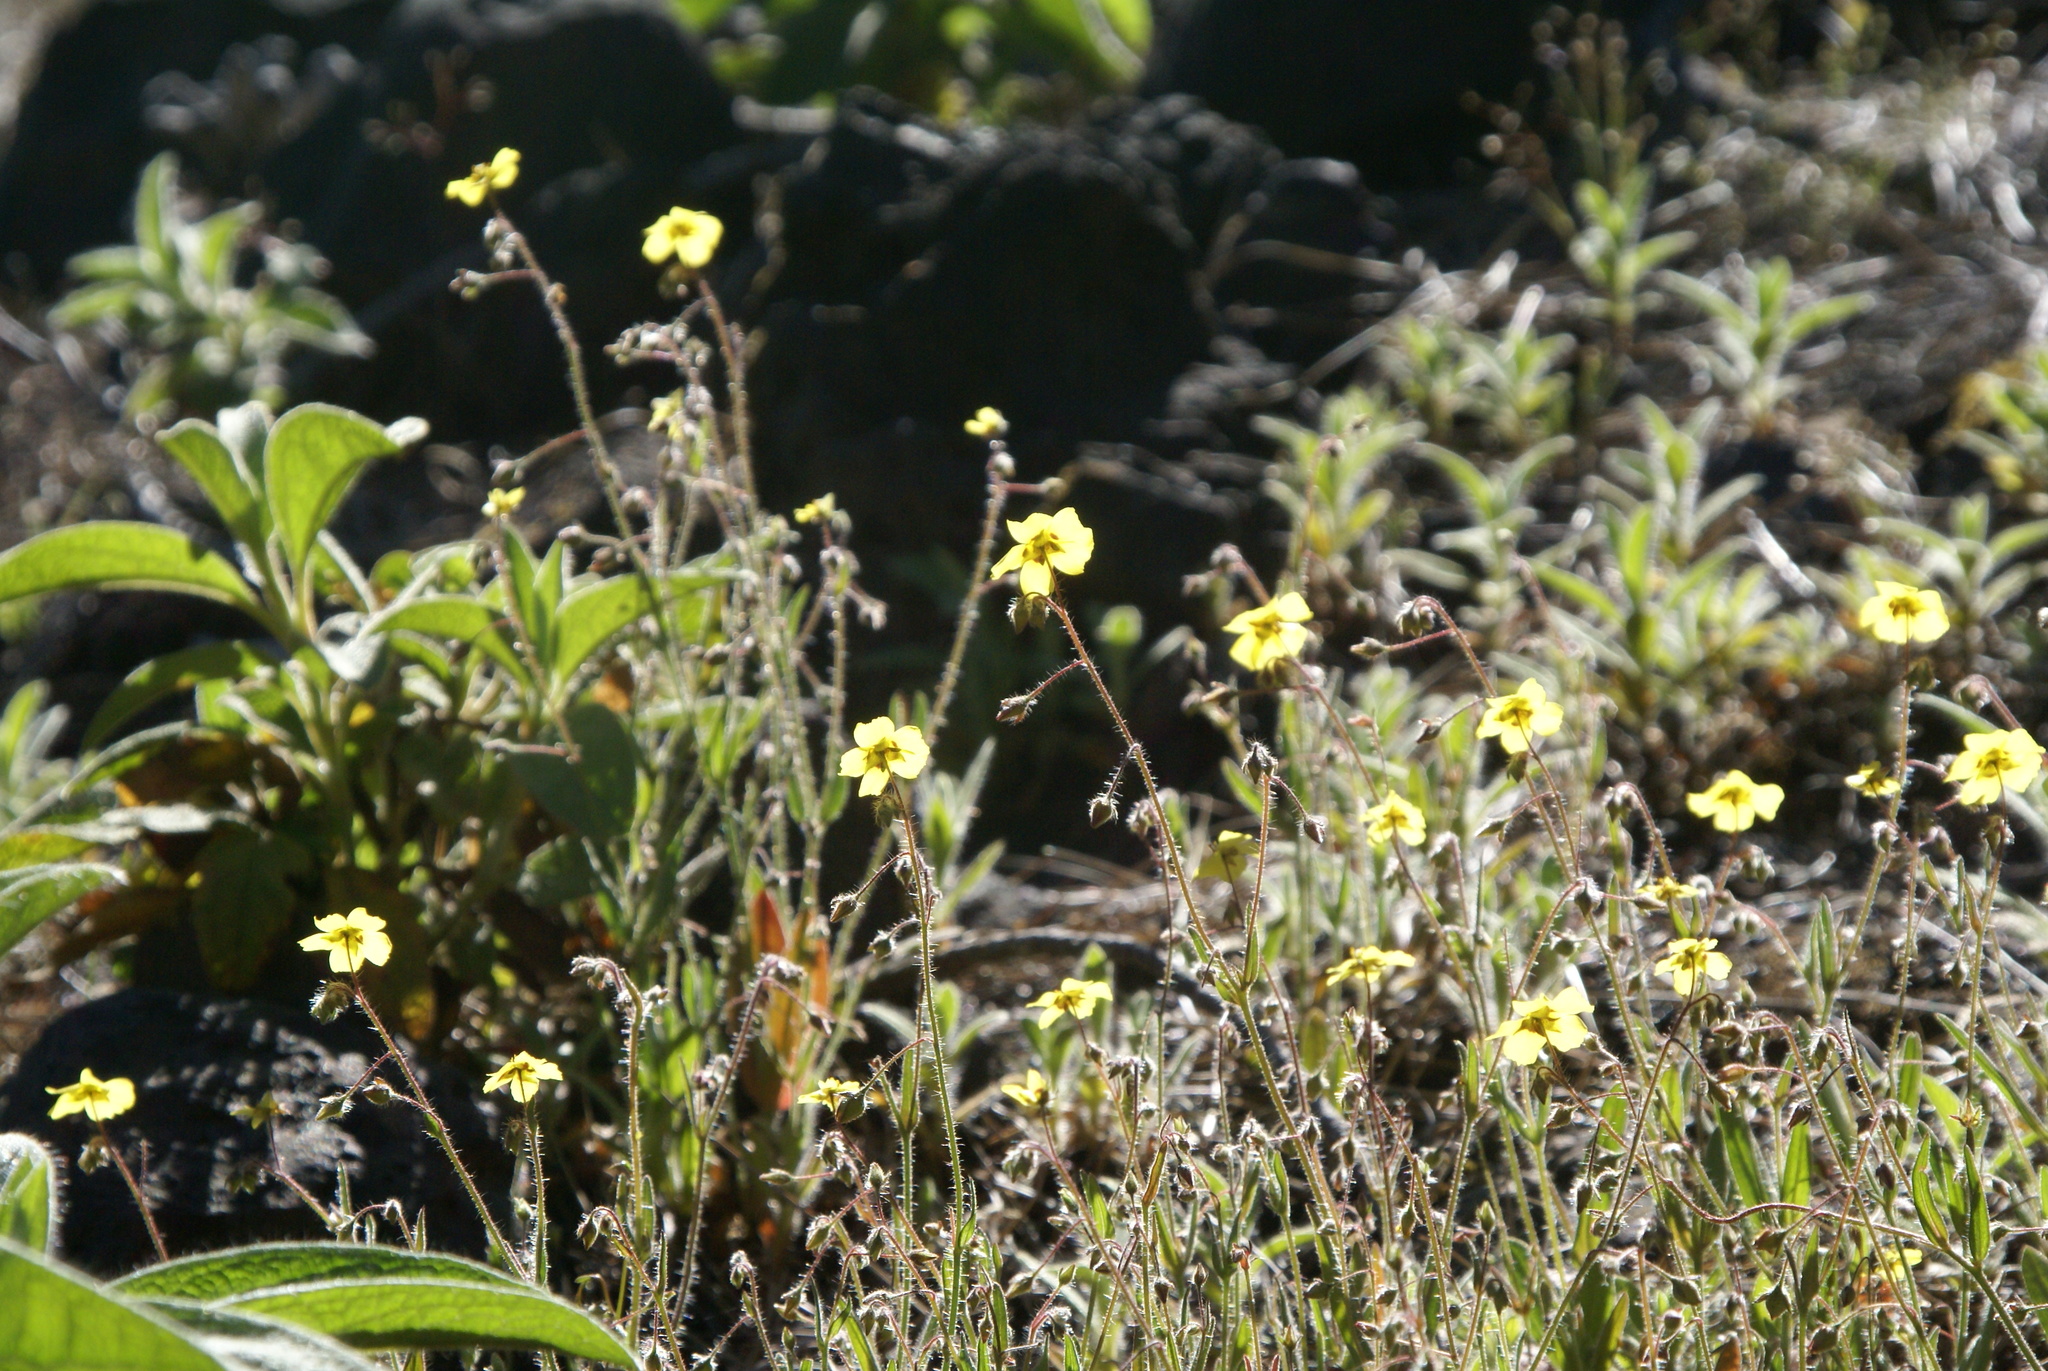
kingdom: Plantae
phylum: Tracheophyta
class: Magnoliopsida
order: Malvales
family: Cistaceae
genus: Tuberaria
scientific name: Tuberaria guttata
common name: Spotted rock-rose
